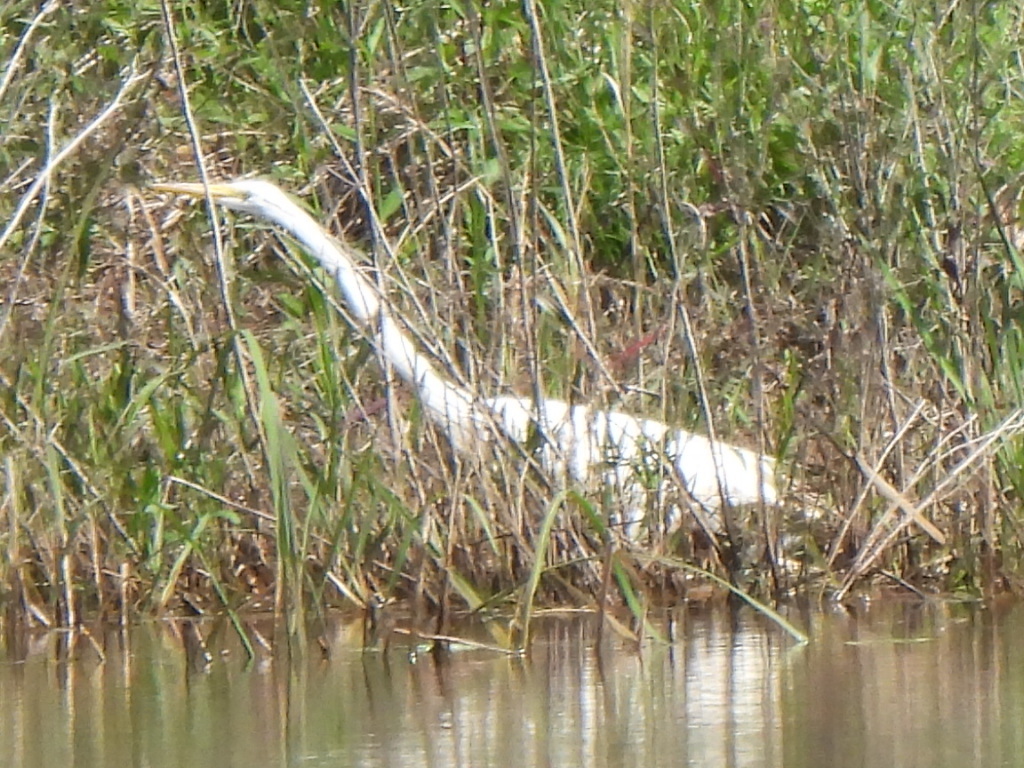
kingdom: Animalia
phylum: Chordata
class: Aves
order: Pelecaniformes
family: Ardeidae
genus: Ardea
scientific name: Ardea alba
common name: Great egret
